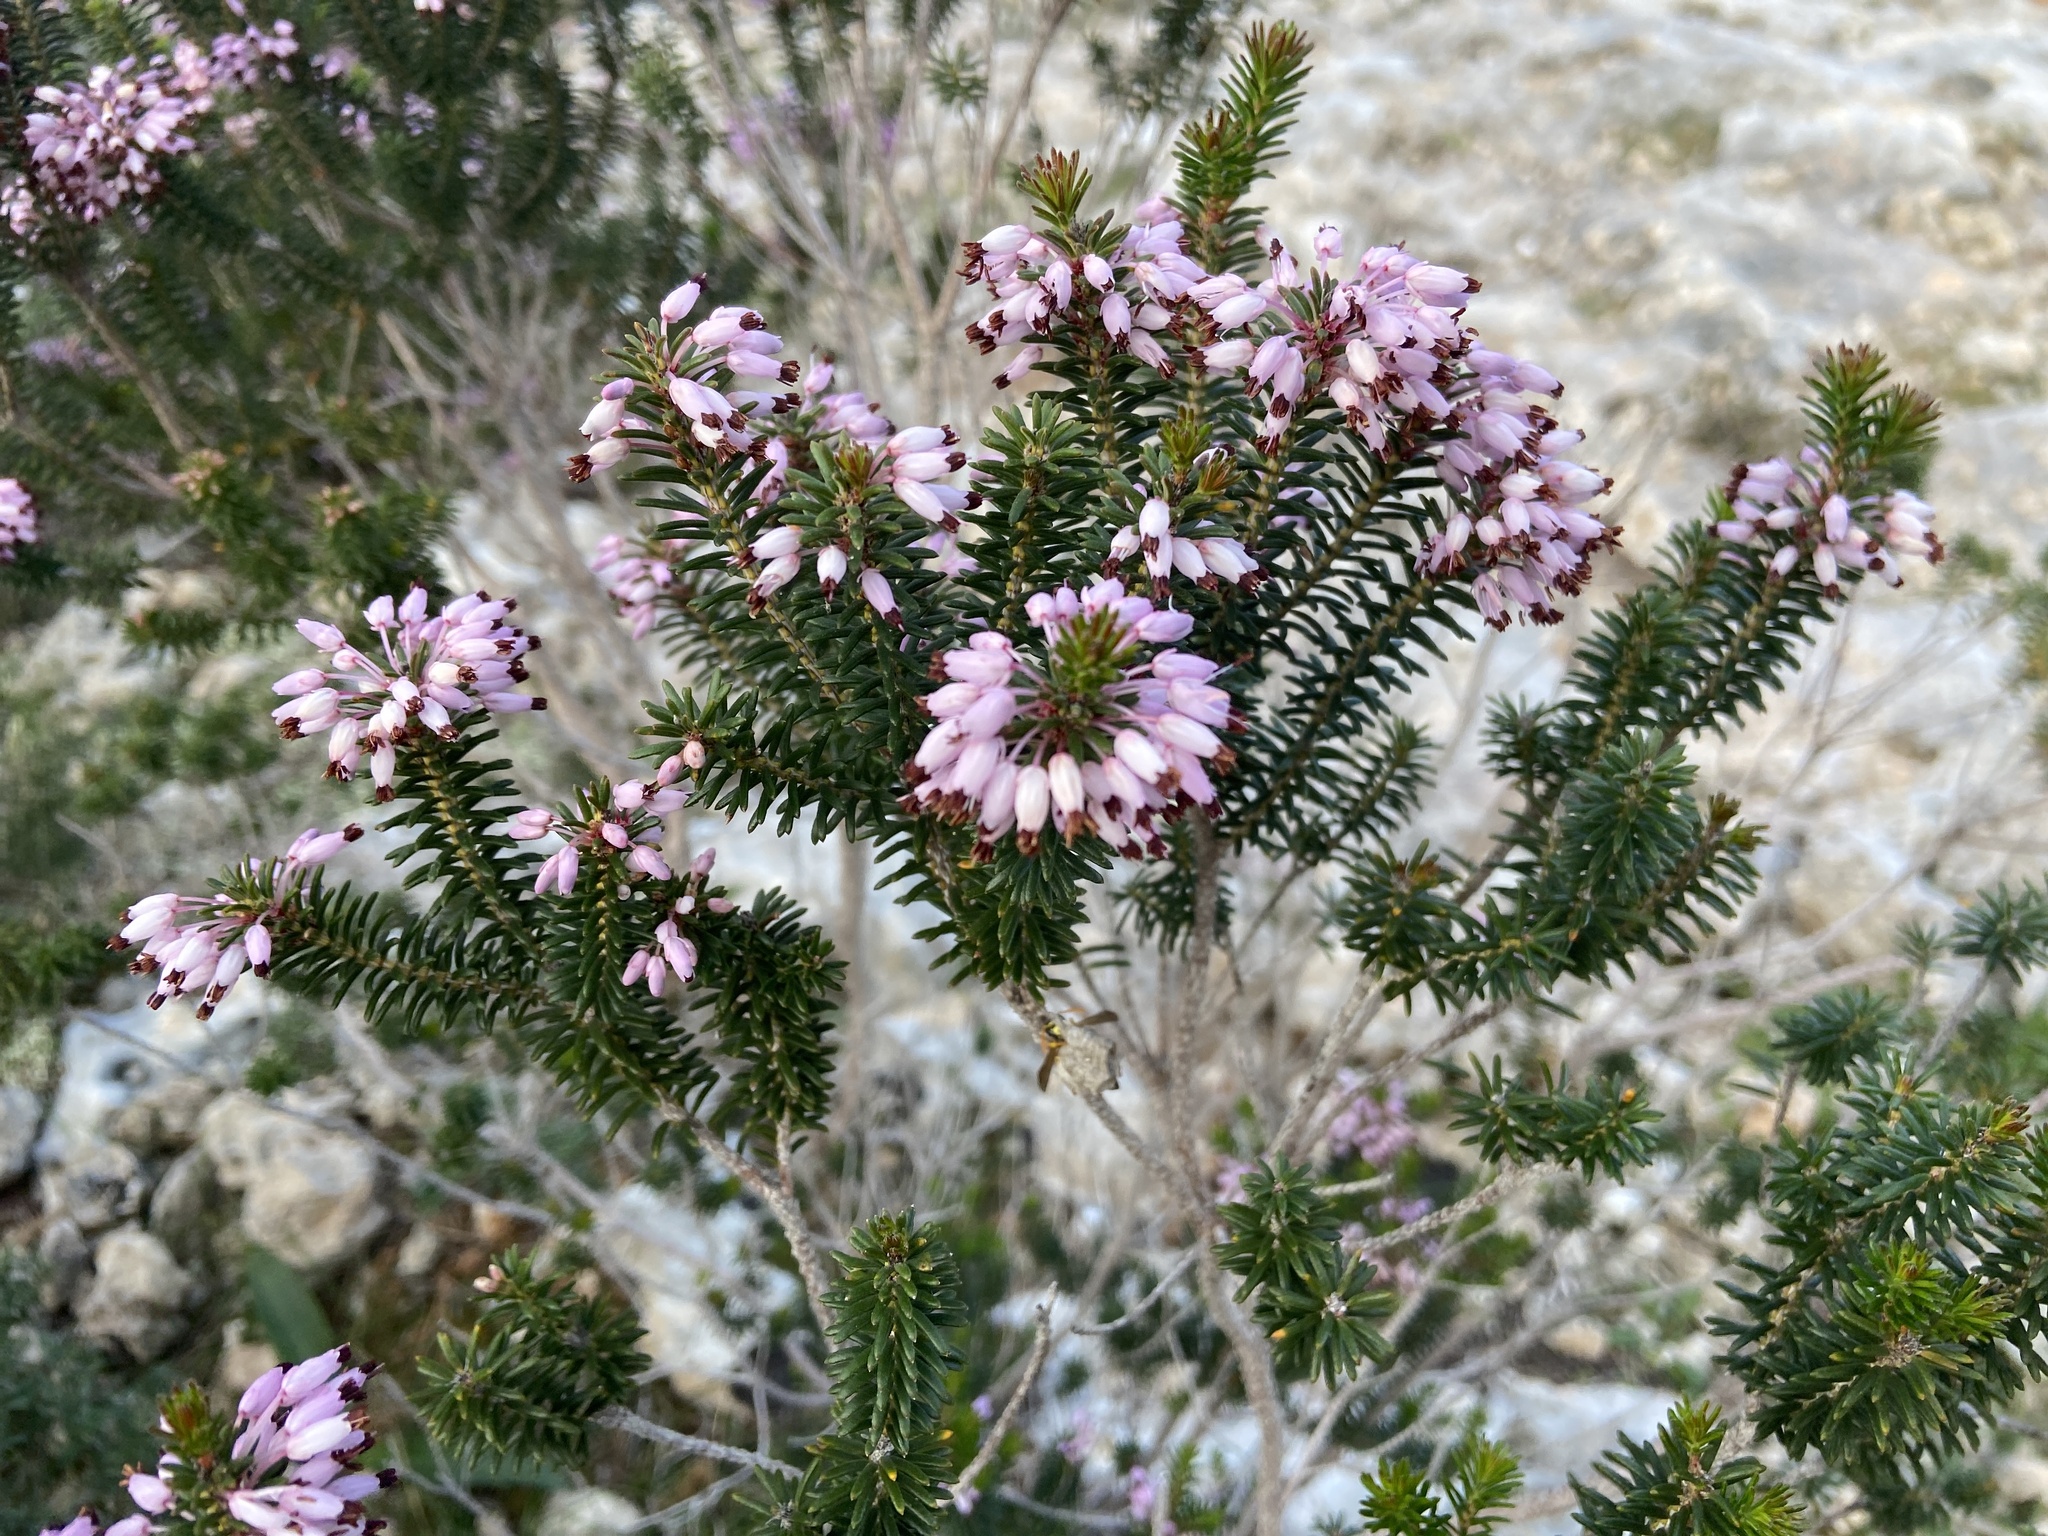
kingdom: Plantae
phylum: Tracheophyta
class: Magnoliopsida
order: Ericales
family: Ericaceae
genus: Erica
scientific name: Erica multiflora
